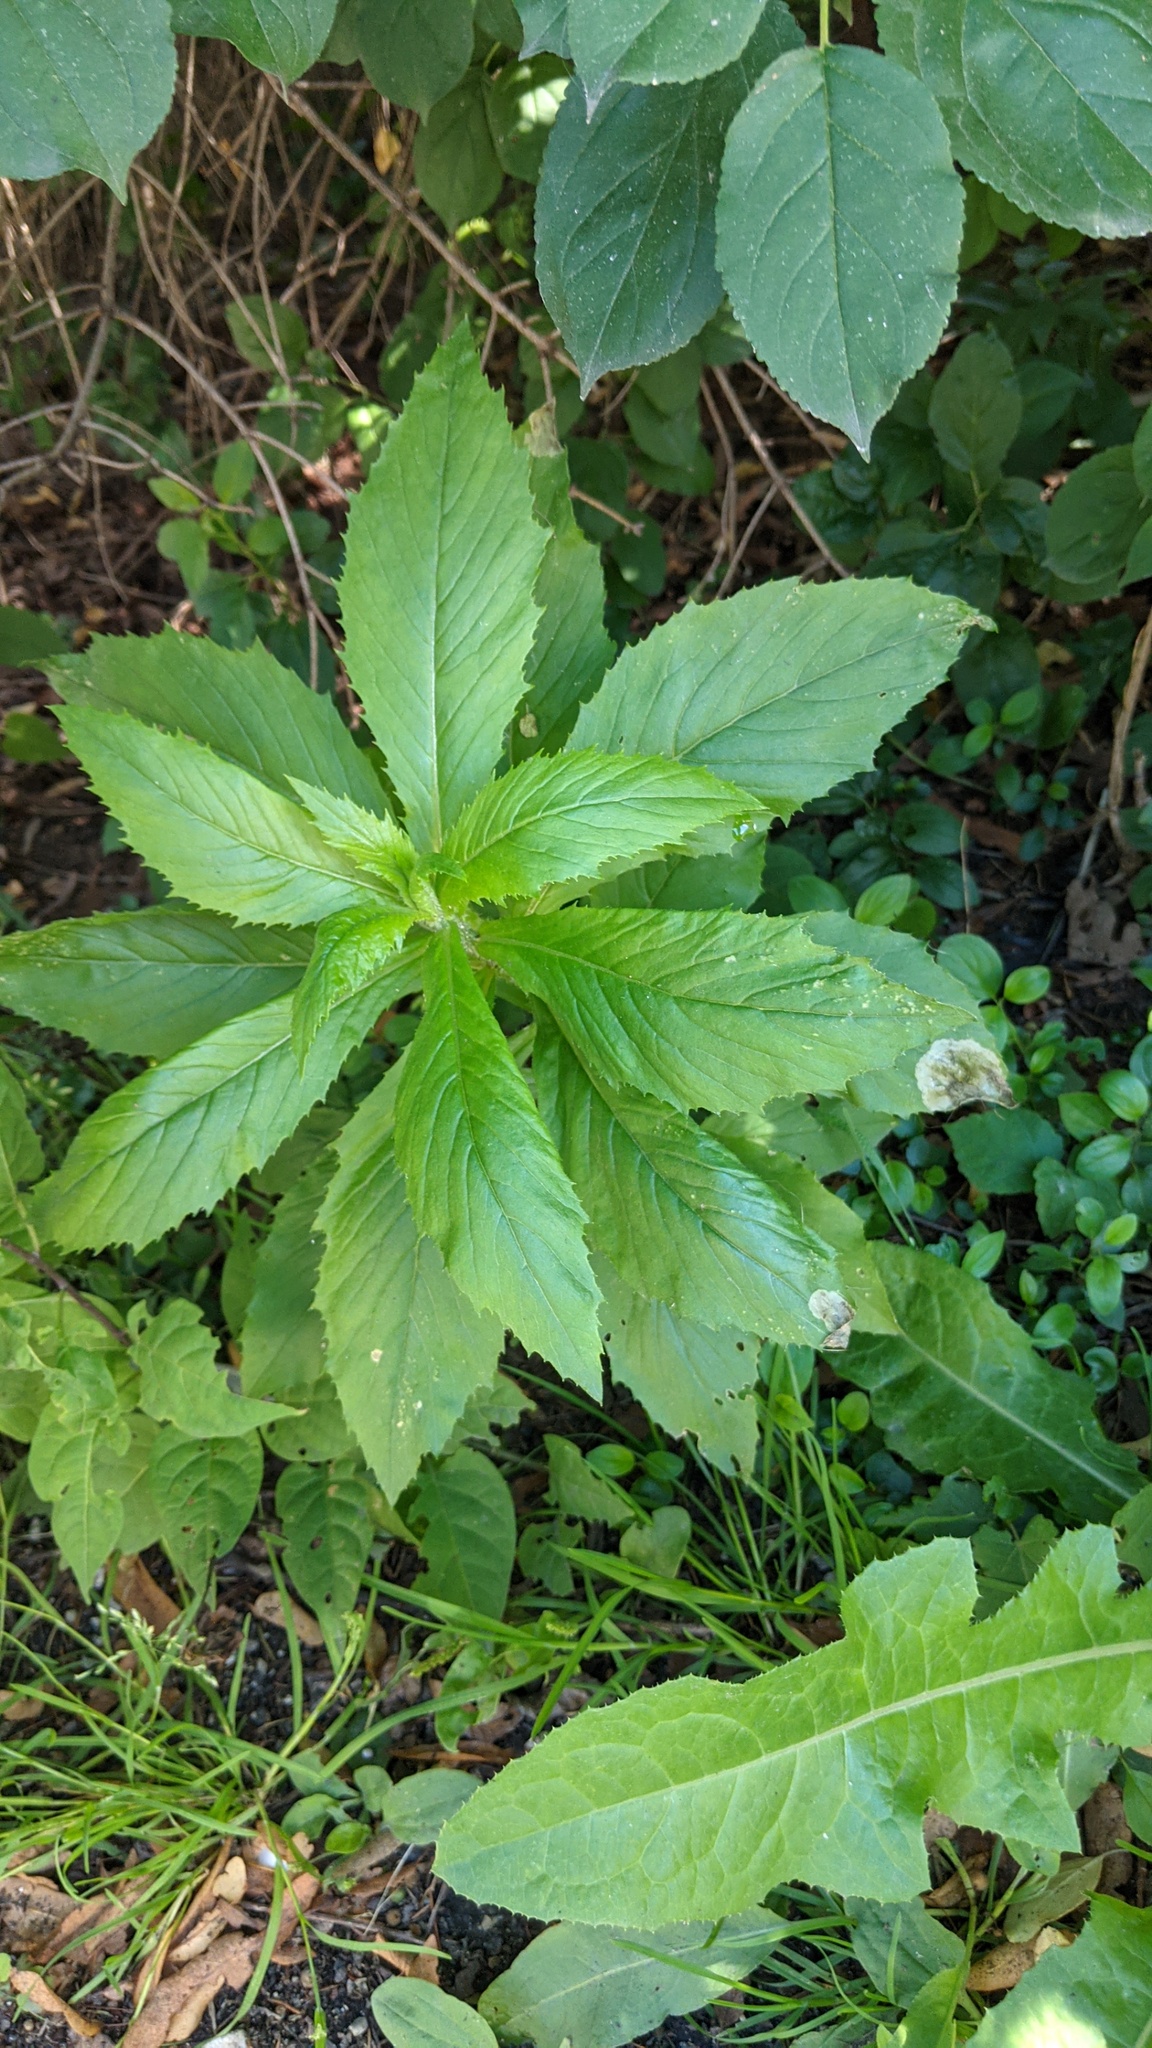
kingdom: Plantae
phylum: Tracheophyta
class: Magnoliopsida
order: Asterales
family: Asteraceae
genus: Erechtites
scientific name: Erechtites hieraciifolius
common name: American burnweed
